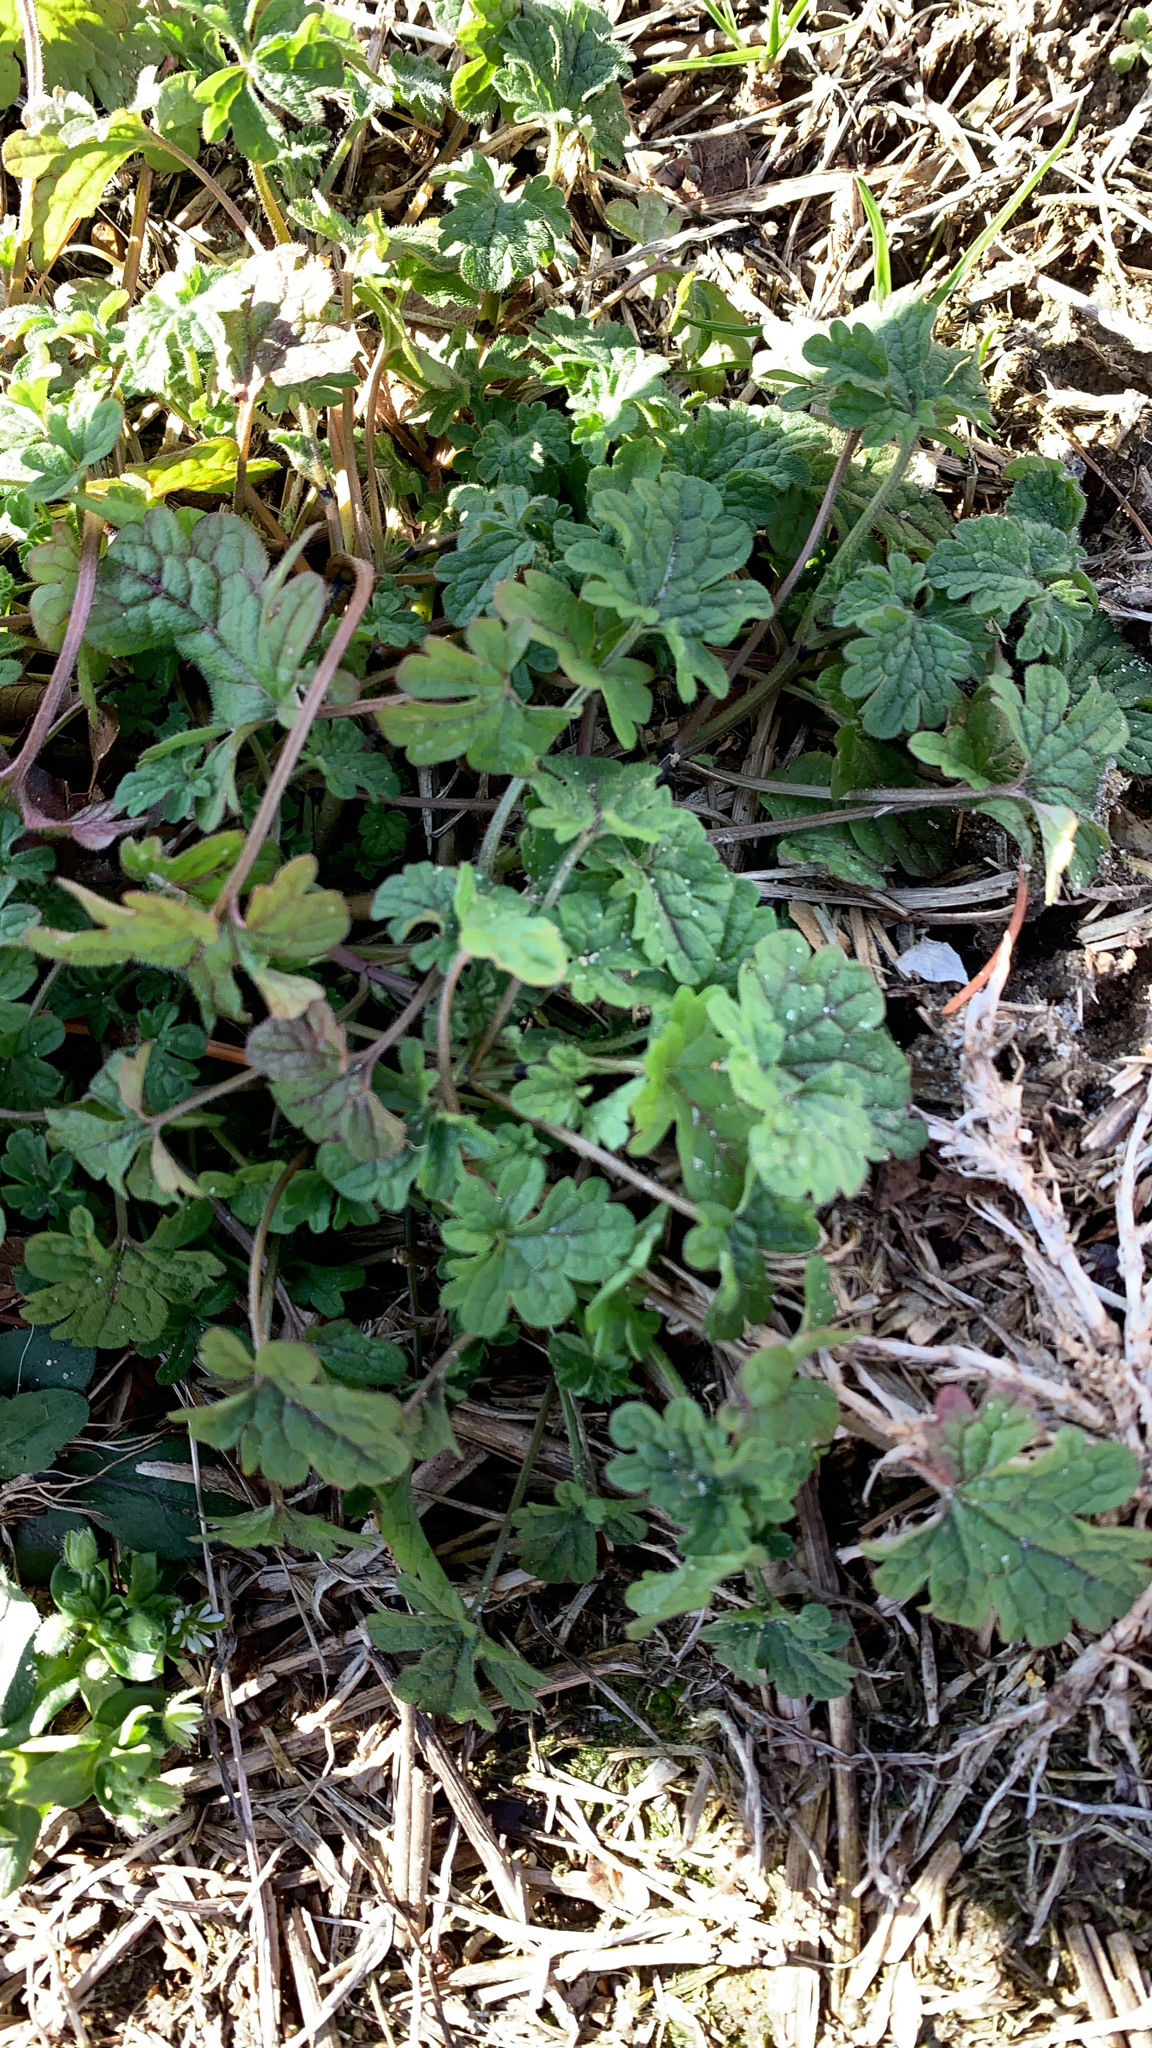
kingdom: Plantae
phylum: Tracheophyta
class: Magnoliopsida
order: Lamiales
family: Lamiaceae
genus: Lamium
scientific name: Lamium amplexicaule
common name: Henbit dead-nettle
